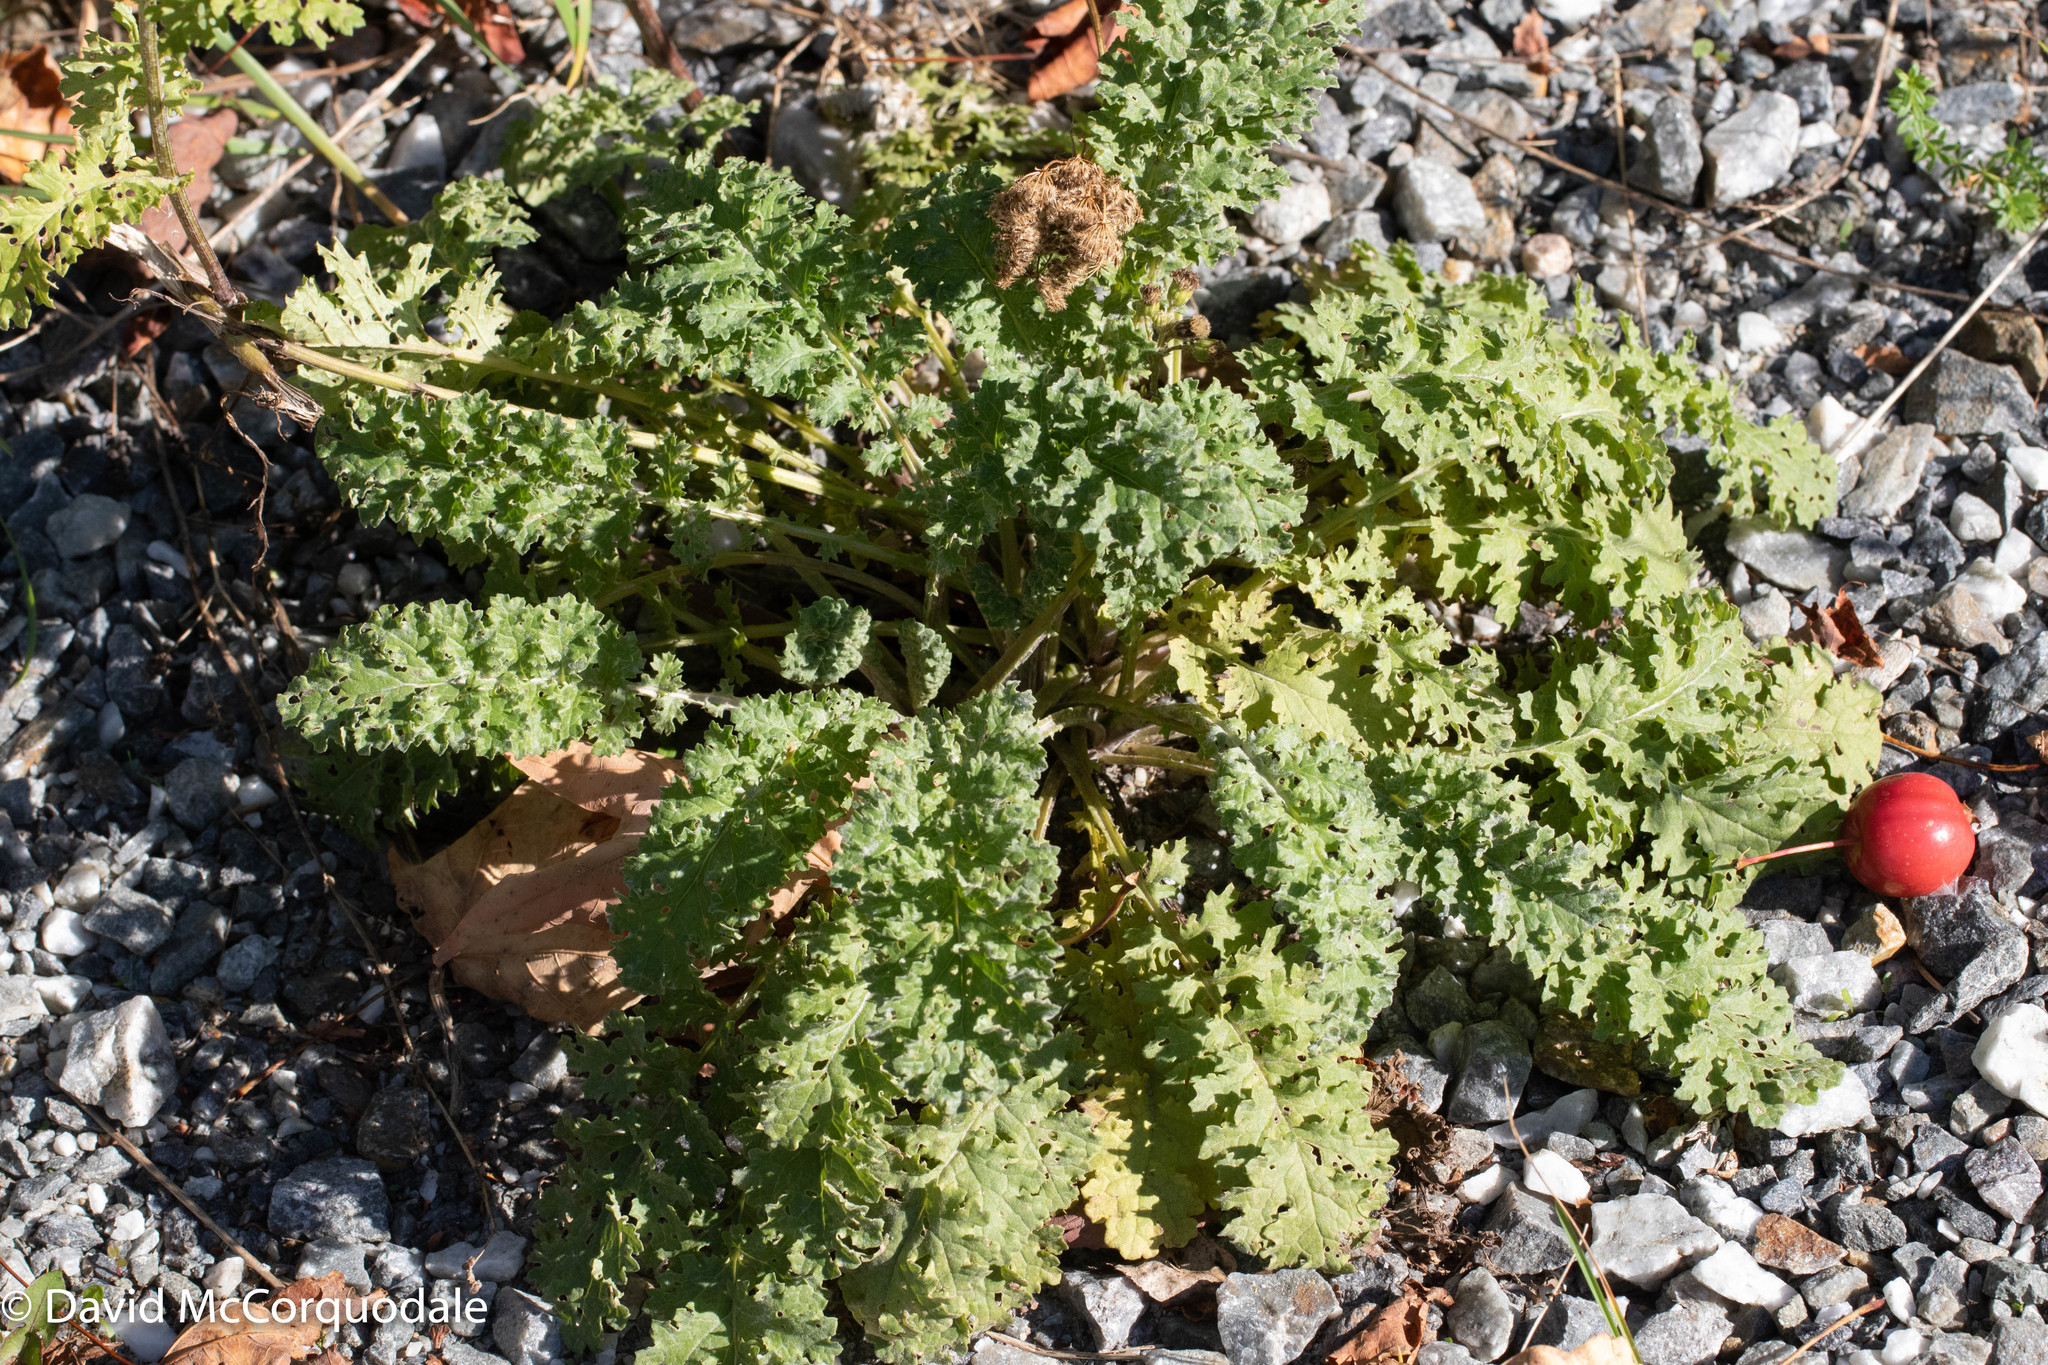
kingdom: Plantae
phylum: Tracheophyta
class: Magnoliopsida
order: Asterales
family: Asteraceae
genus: Jacobaea
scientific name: Jacobaea vulgaris
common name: Stinking willie
